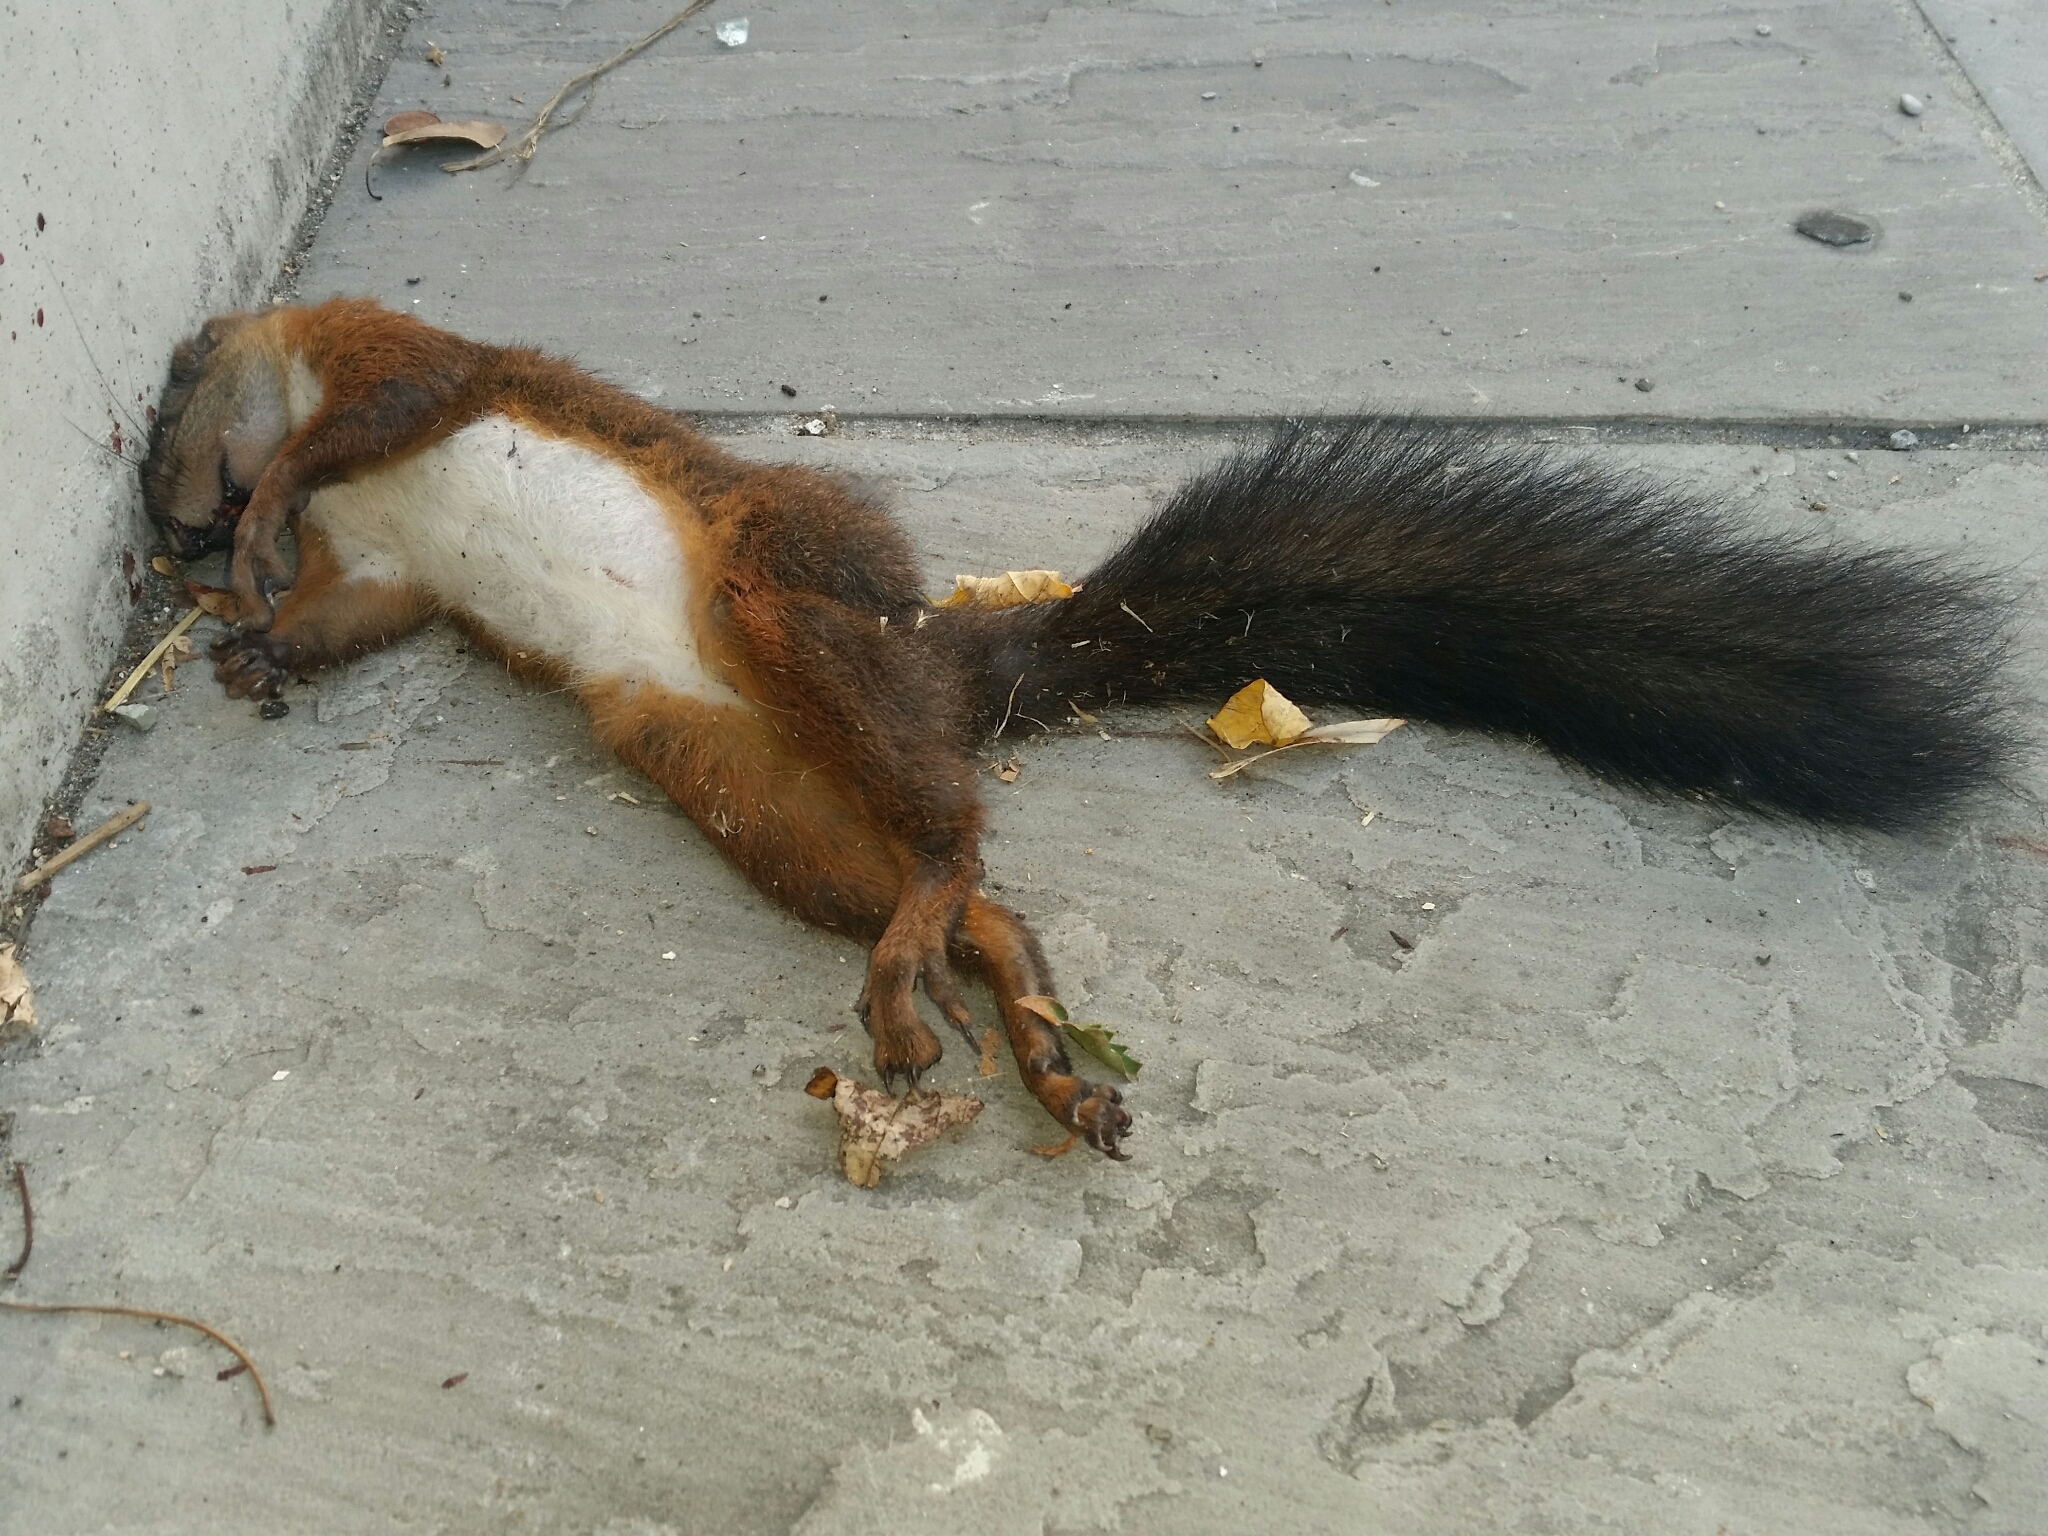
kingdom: Animalia
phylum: Chordata
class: Mammalia
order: Rodentia
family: Sciuridae
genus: Sciurus
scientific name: Sciurus vulgaris
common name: Eurasian red squirrel
